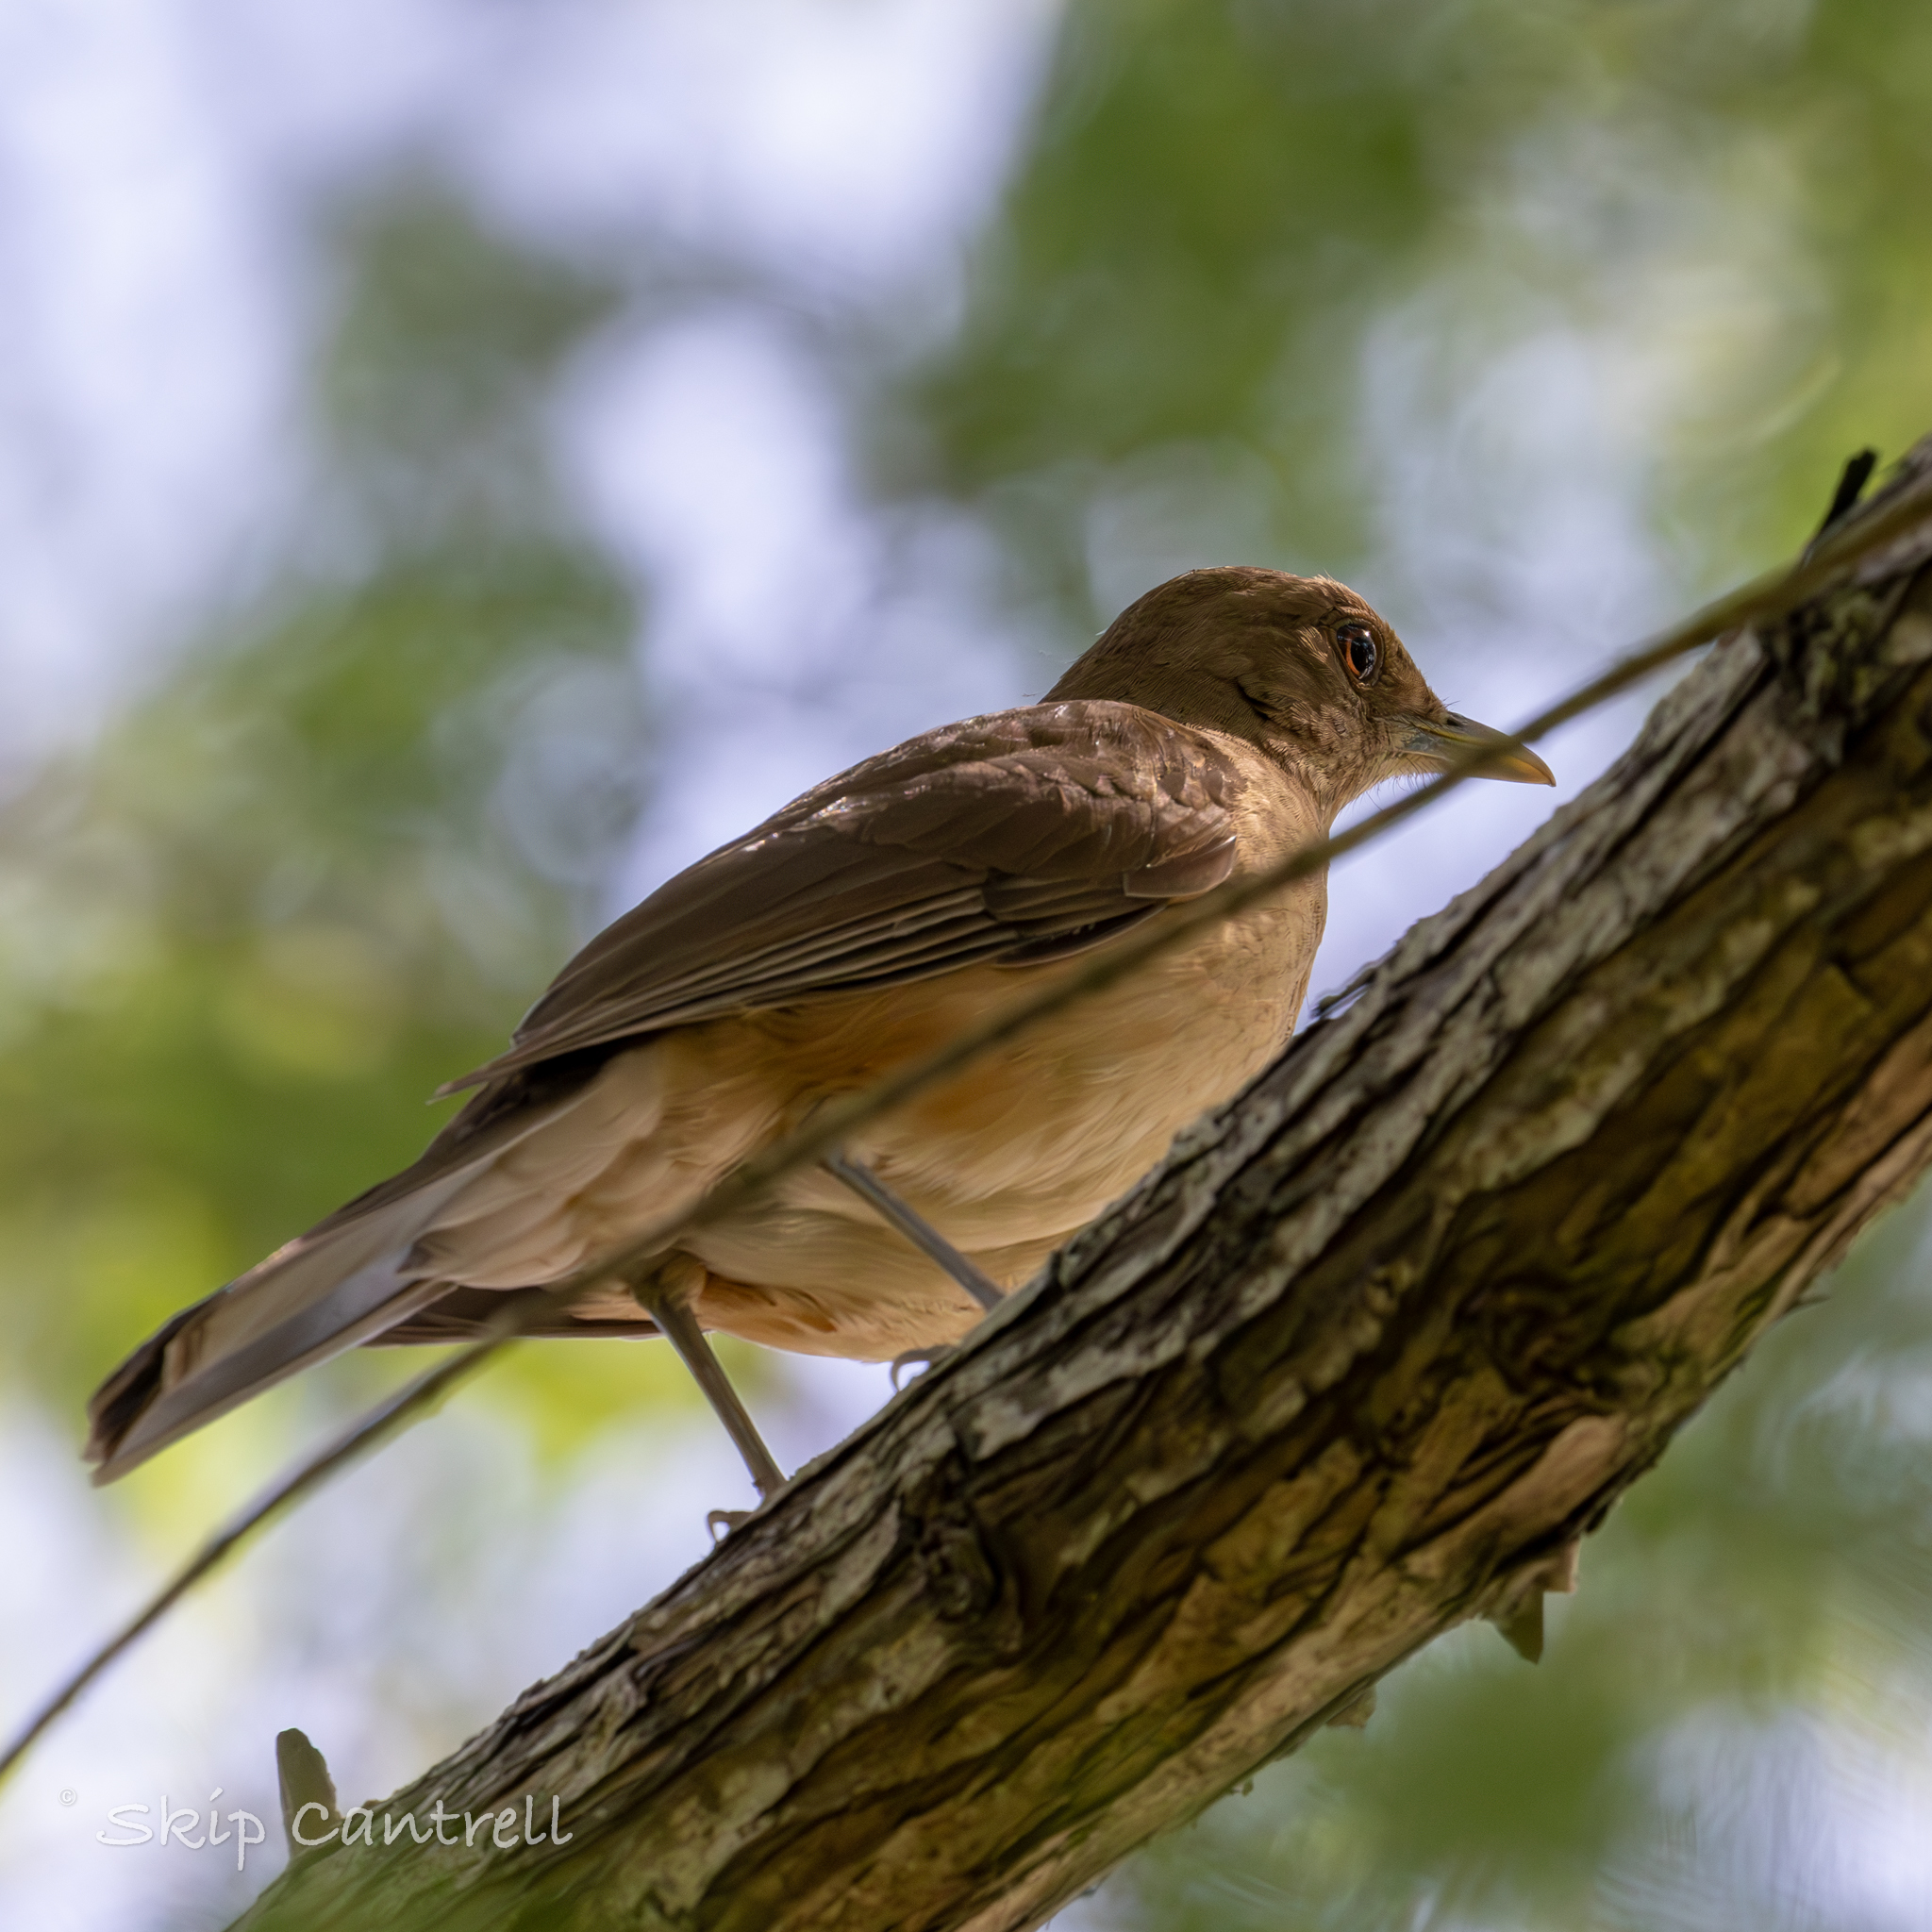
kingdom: Animalia
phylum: Chordata
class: Aves
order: Passeriformes
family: Turdidae
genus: Turdus
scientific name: Turdus grayi
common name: Clay-colored thrush
